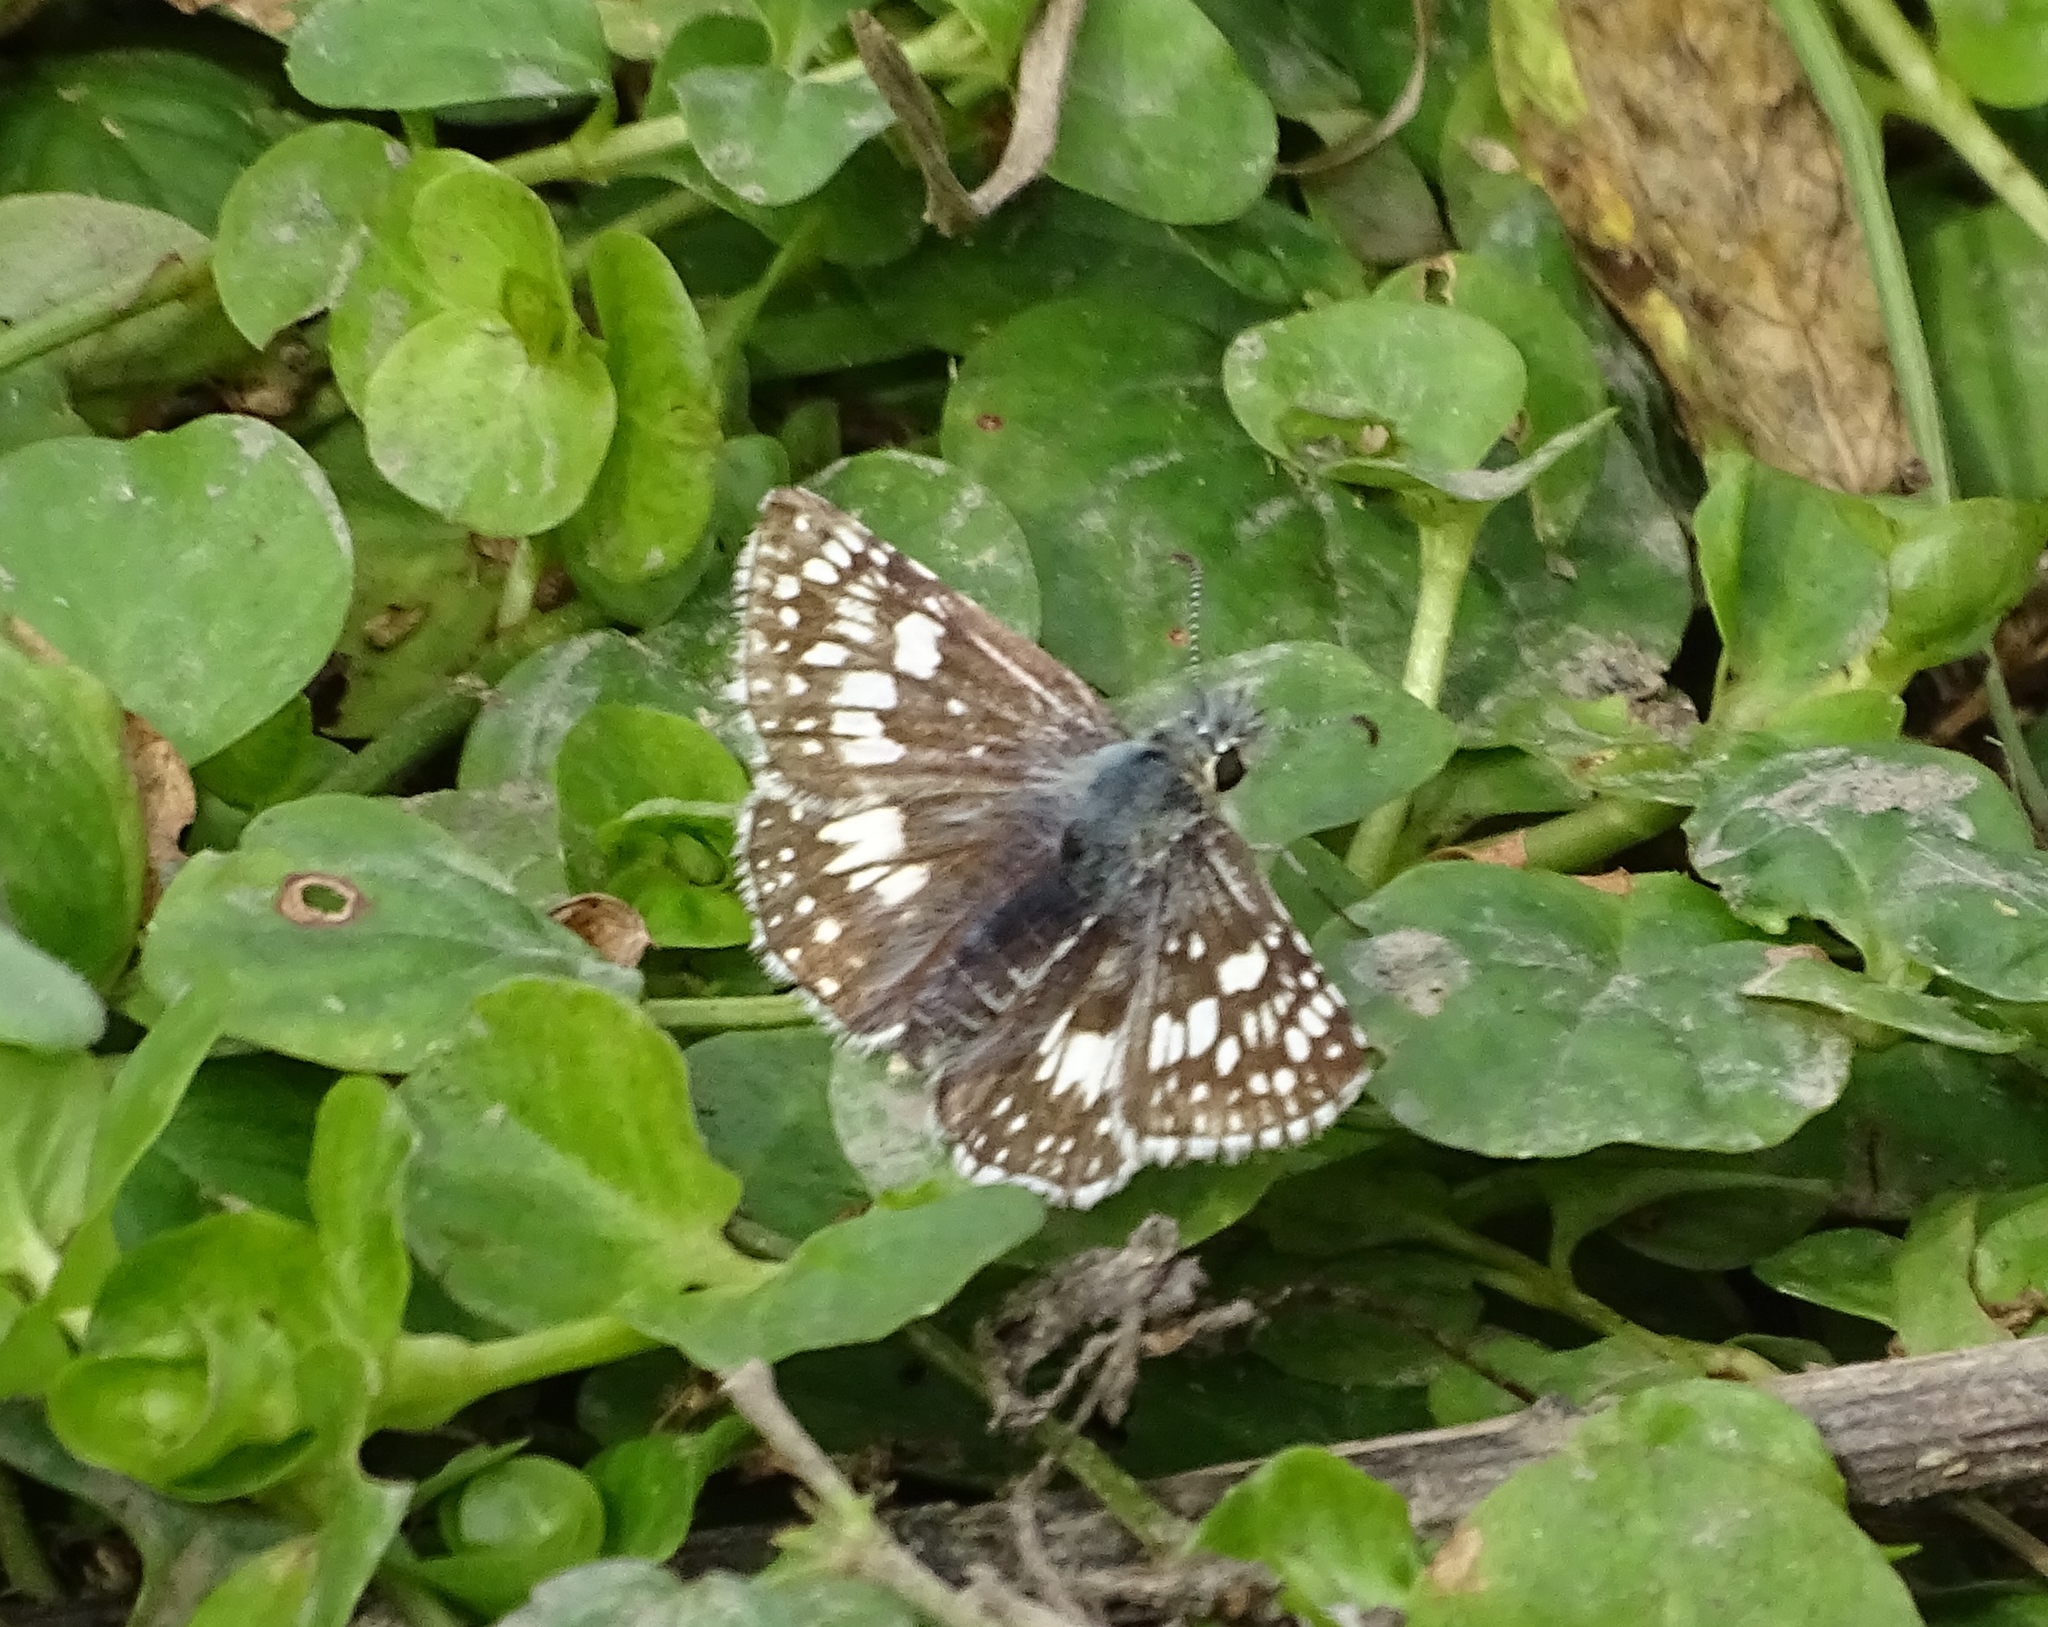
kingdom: Animalia
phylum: Arthropoda
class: Insecta
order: Lepidoptera
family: Hesperiidae
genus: Burnsius
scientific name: Burnsius communis
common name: Common checkered-skipper
